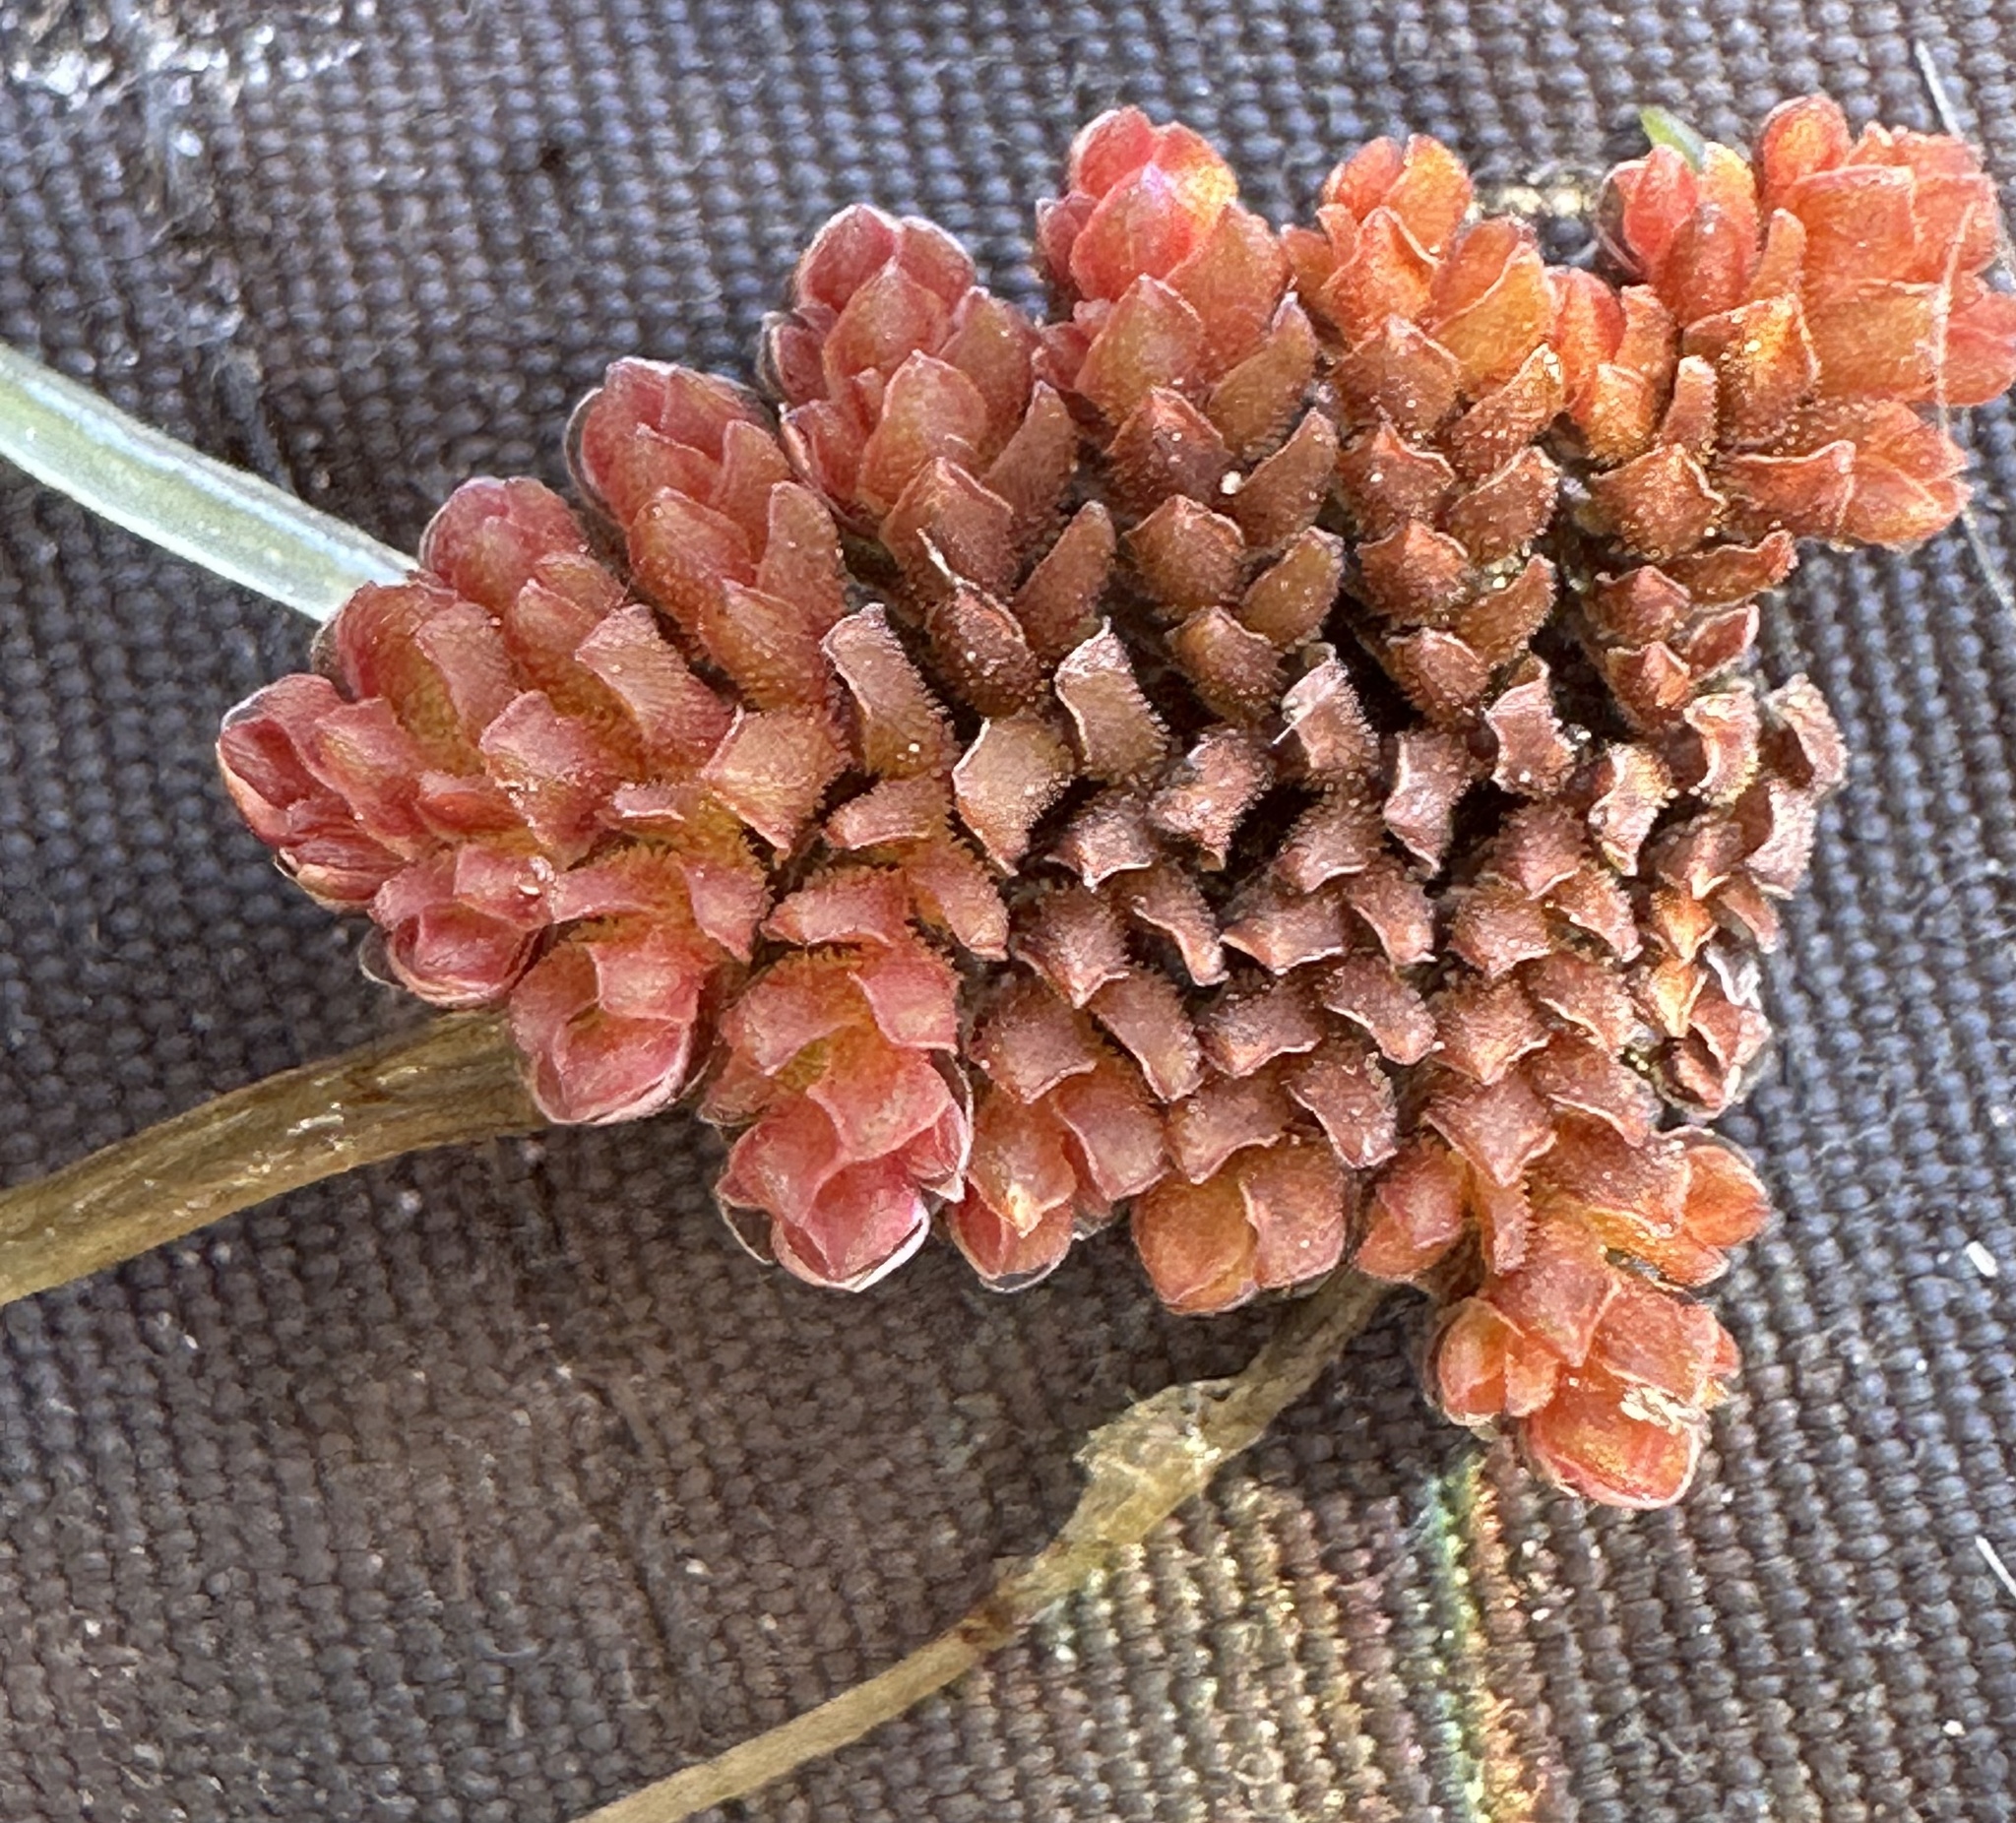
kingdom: Plantae
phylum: Tracheophyta
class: Polypodiopsida
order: Salviniales
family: Salviniaceae
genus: Azolla
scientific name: Azolla pinnata
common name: Ferny azolla
